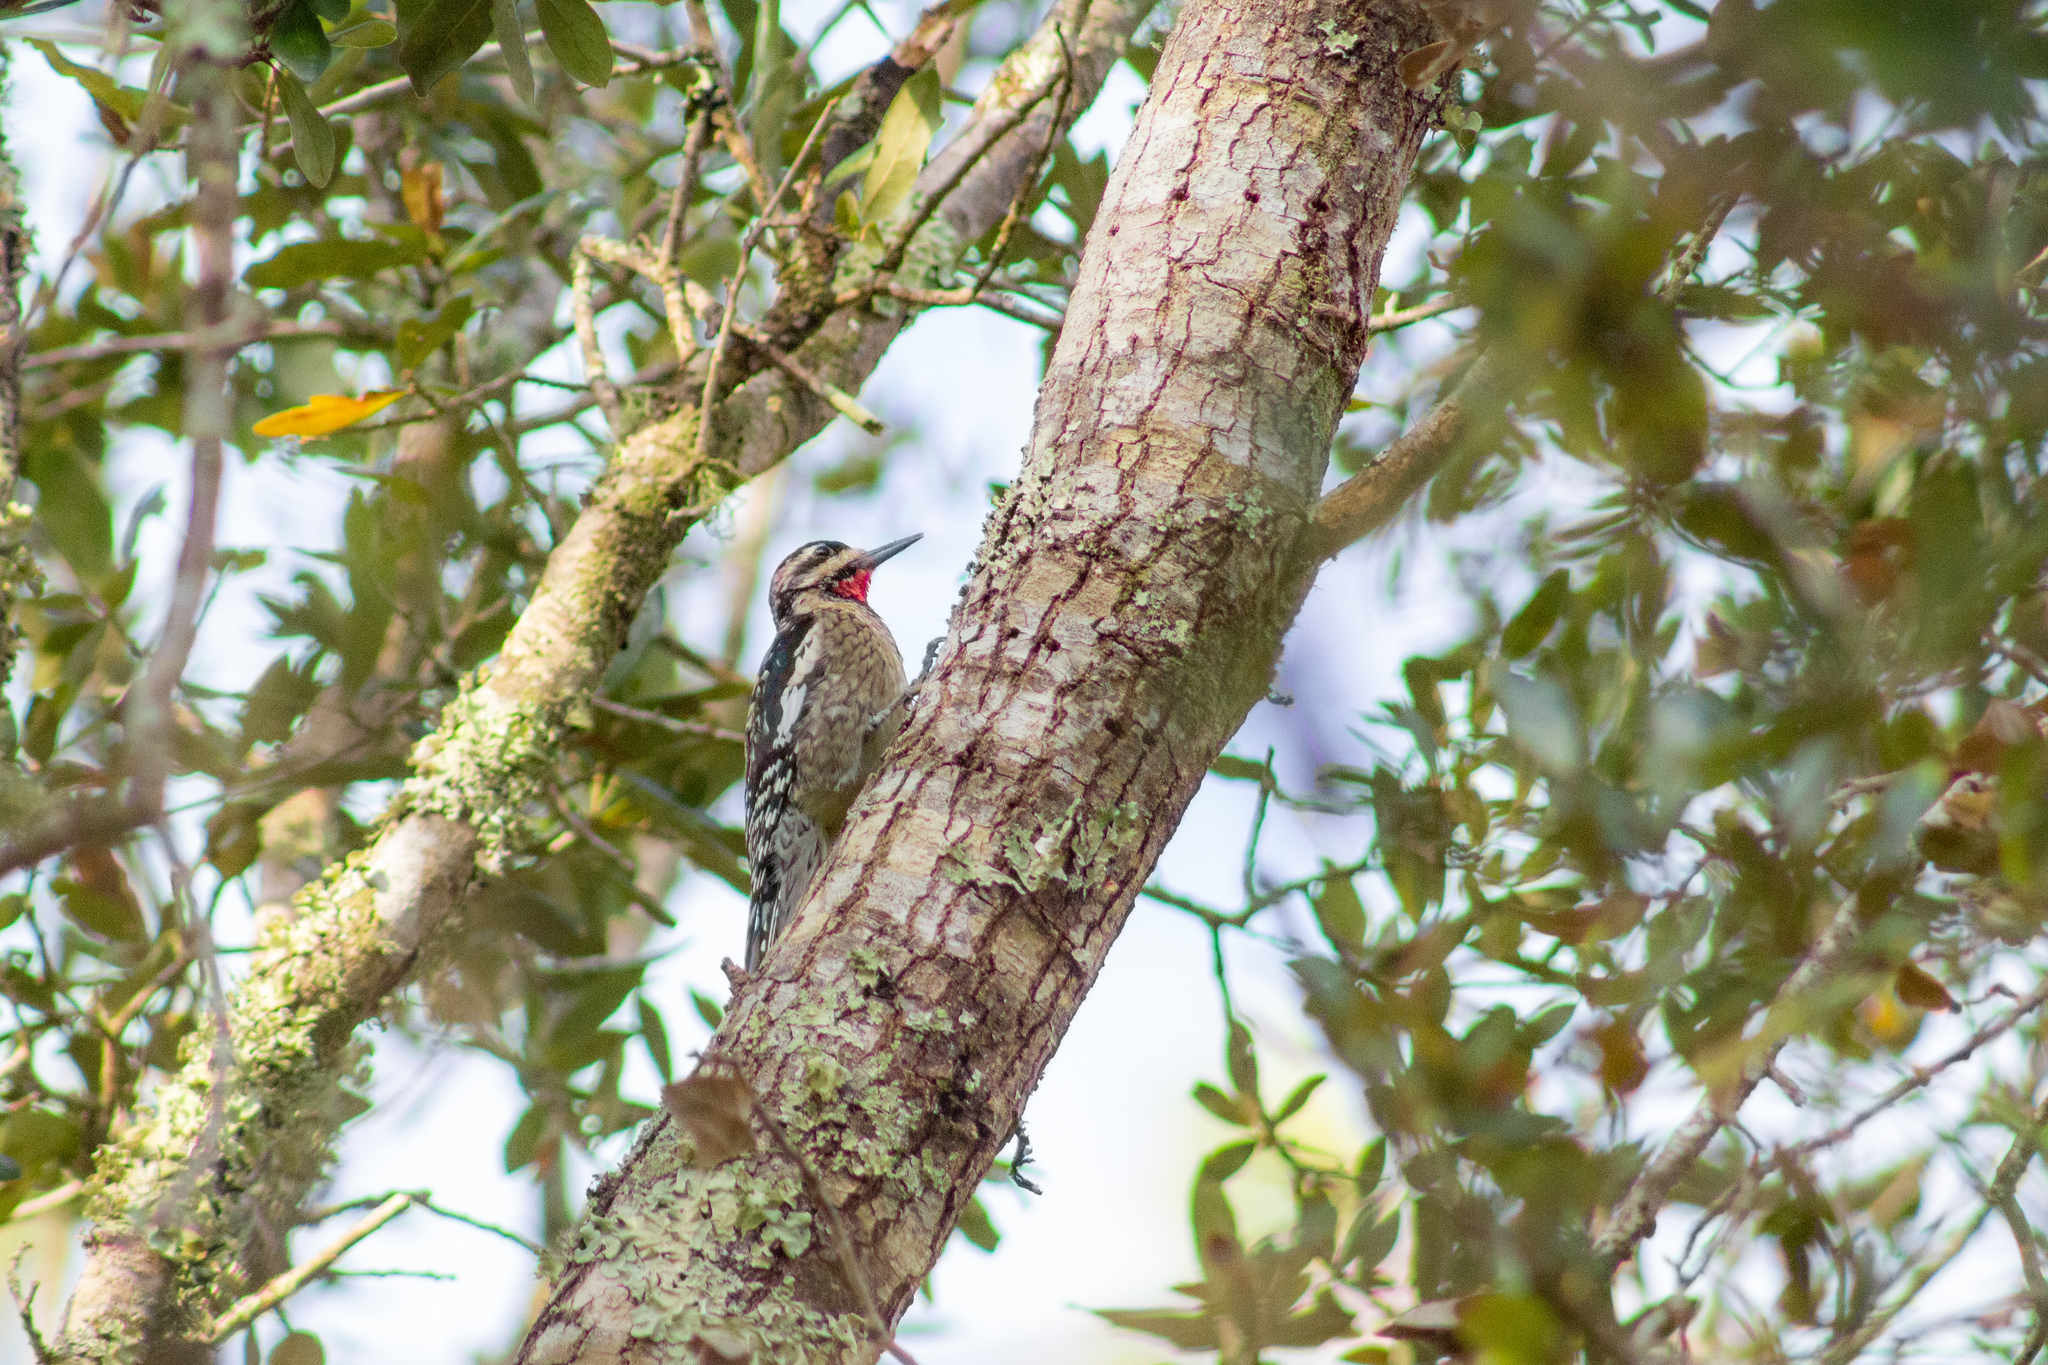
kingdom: Animalia
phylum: Chordata
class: Aves
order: Piciformes
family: Picidae
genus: Sphyrapicus
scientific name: Sphyrapicus varius
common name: Yellow-bellied sapsucker
